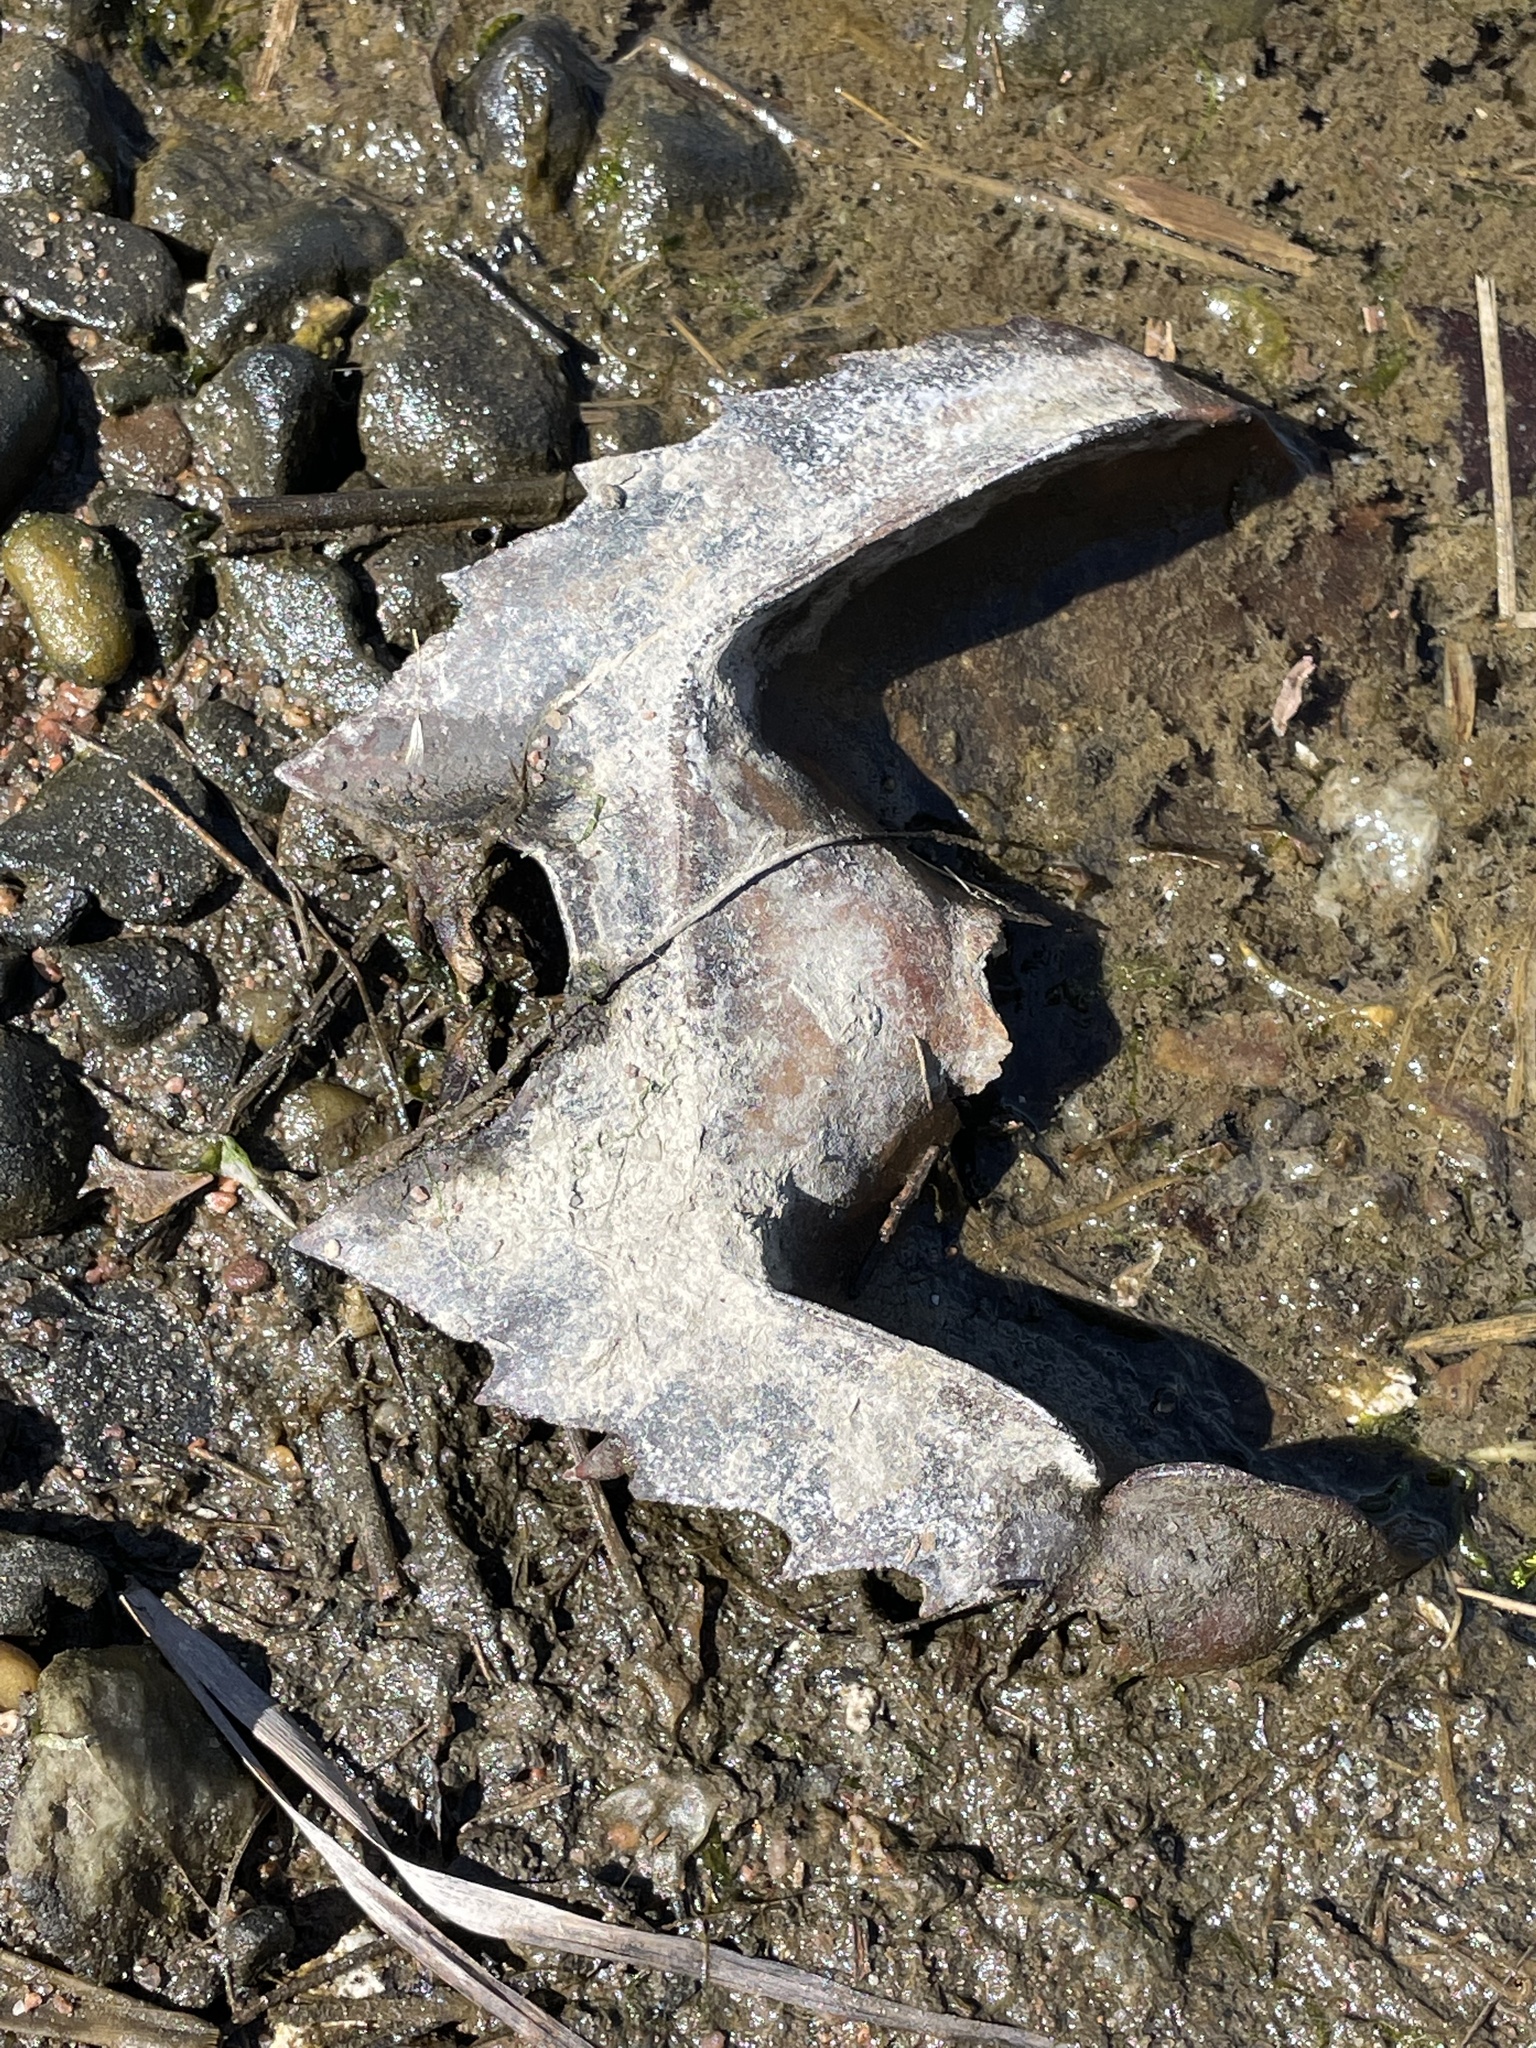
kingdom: Animalia
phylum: Arthropoda
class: Merostomata
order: Xiphosurida
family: Limulidae
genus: Limulus
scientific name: Limulus polyphemus
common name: Horseshoe crab
